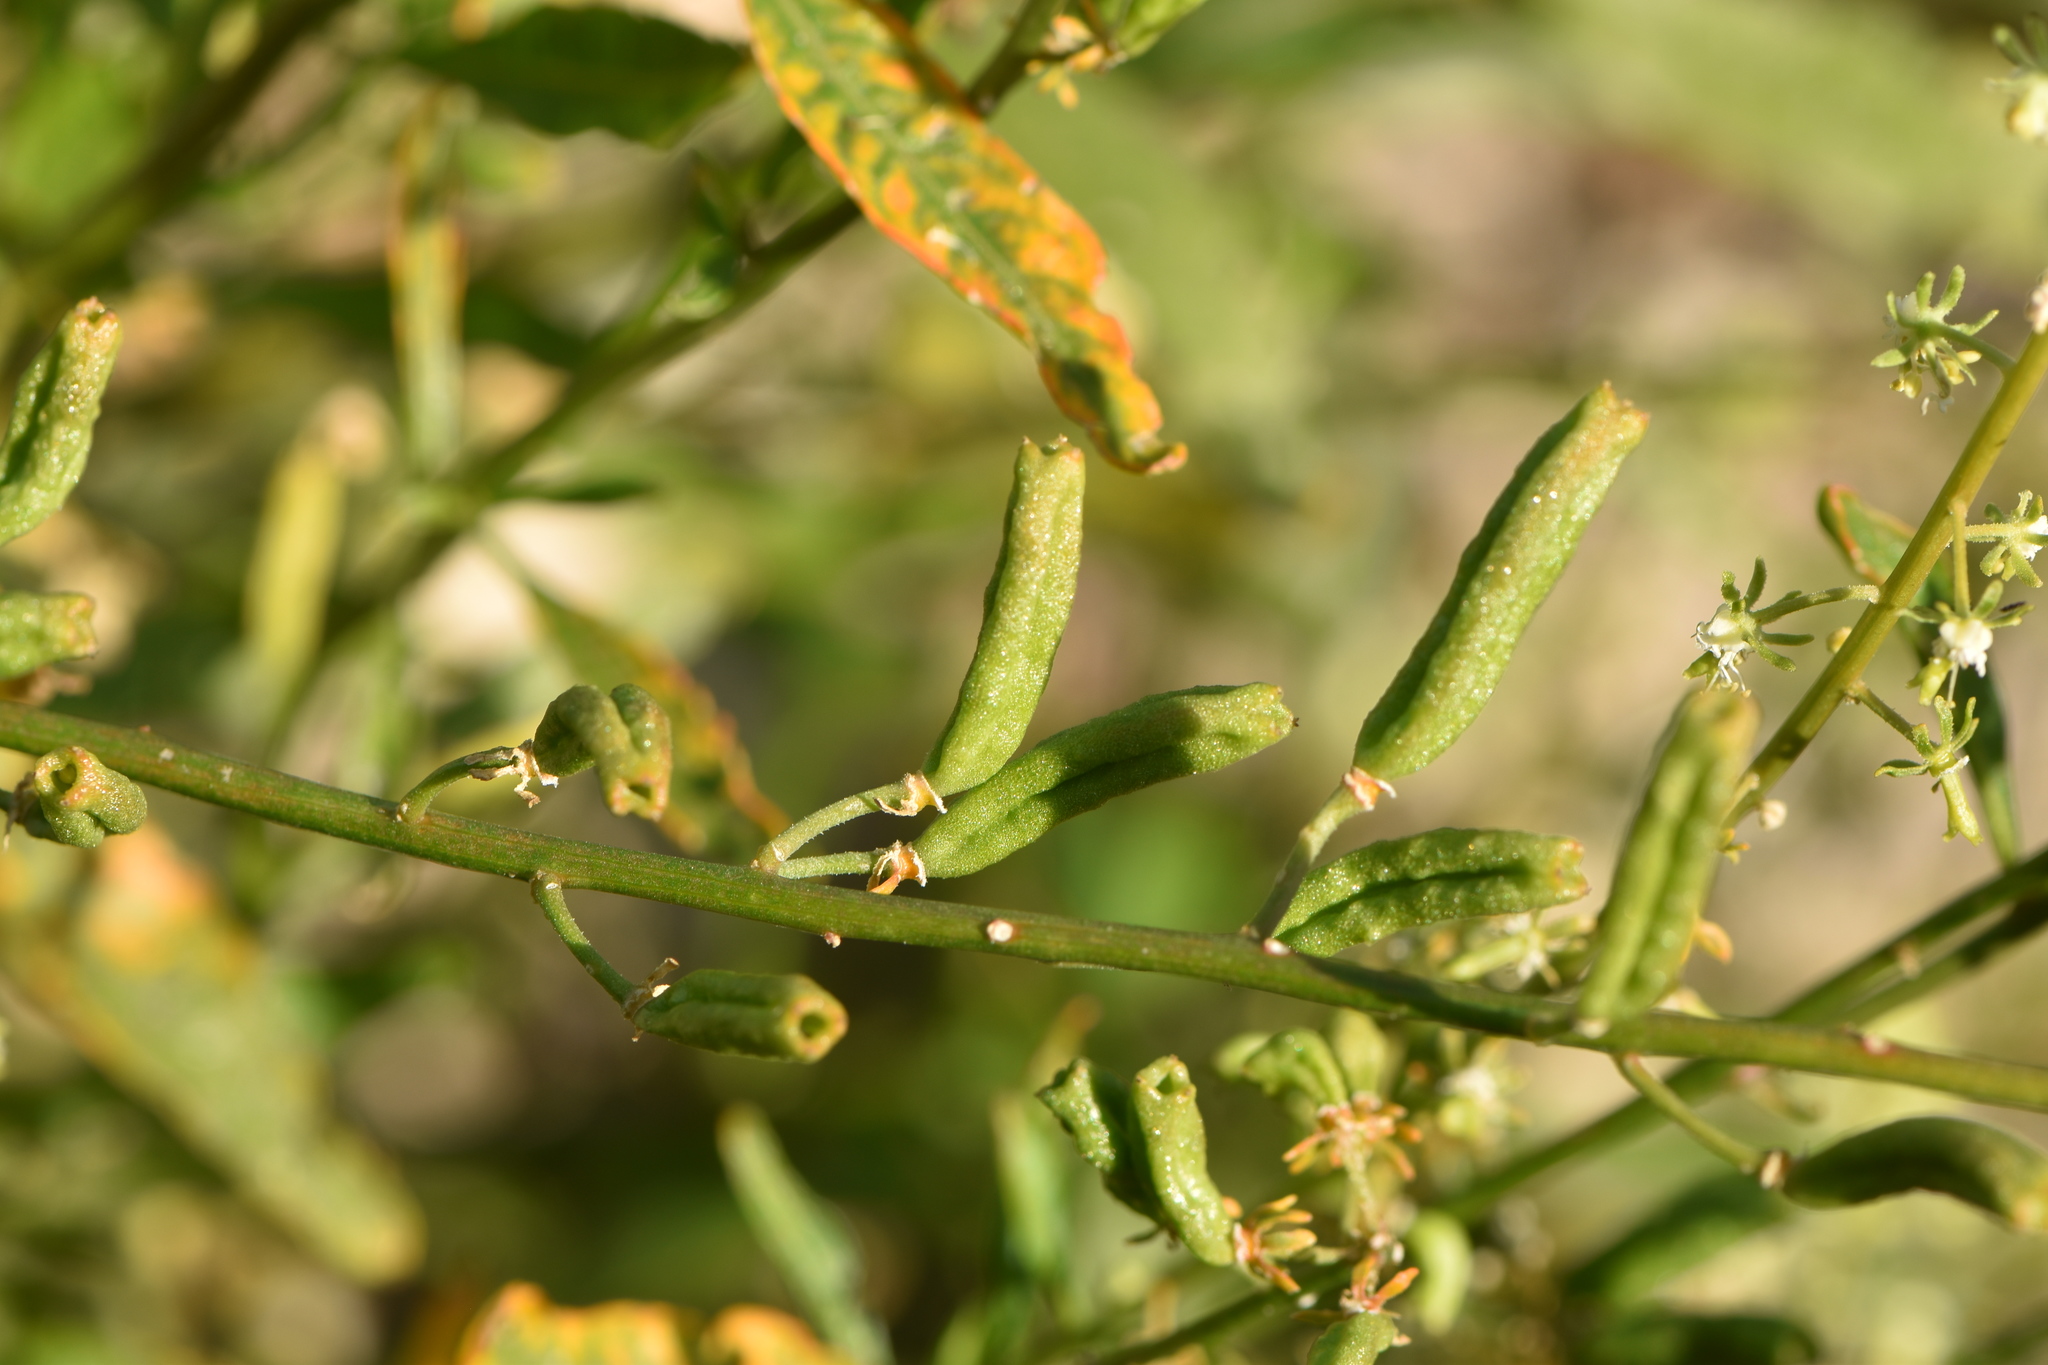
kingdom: Plantae
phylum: Tracheophyta
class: Magnoliopsida
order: Brassicales
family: Resedaceae
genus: Reseda
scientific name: Reseda lanceolata
